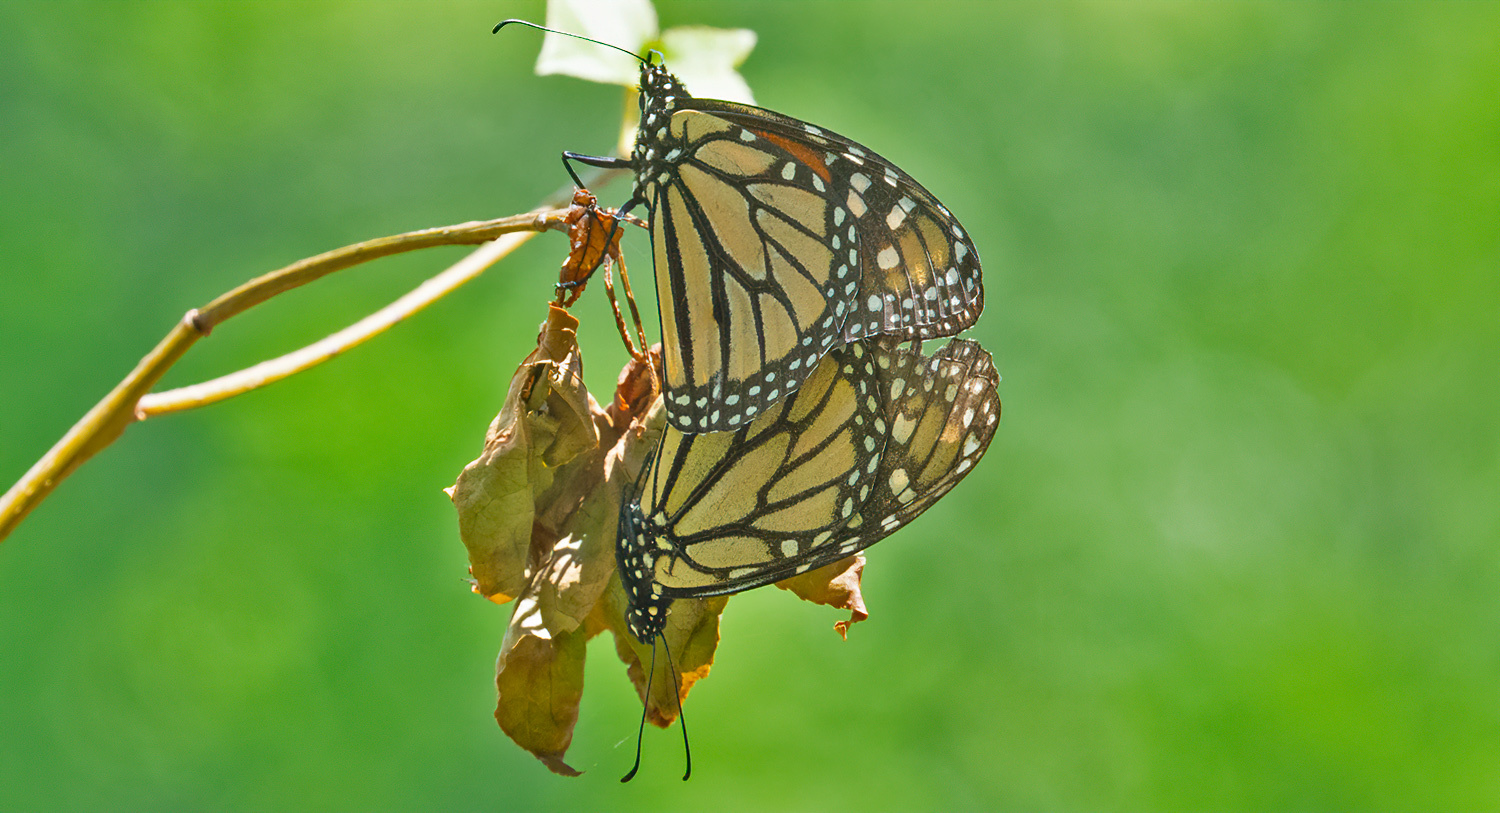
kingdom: Animalia
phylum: Arthropoda
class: Insecta
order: Lepidoptera
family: Nymphalidae
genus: Danaus
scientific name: Danaus plexippus
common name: Monarch
